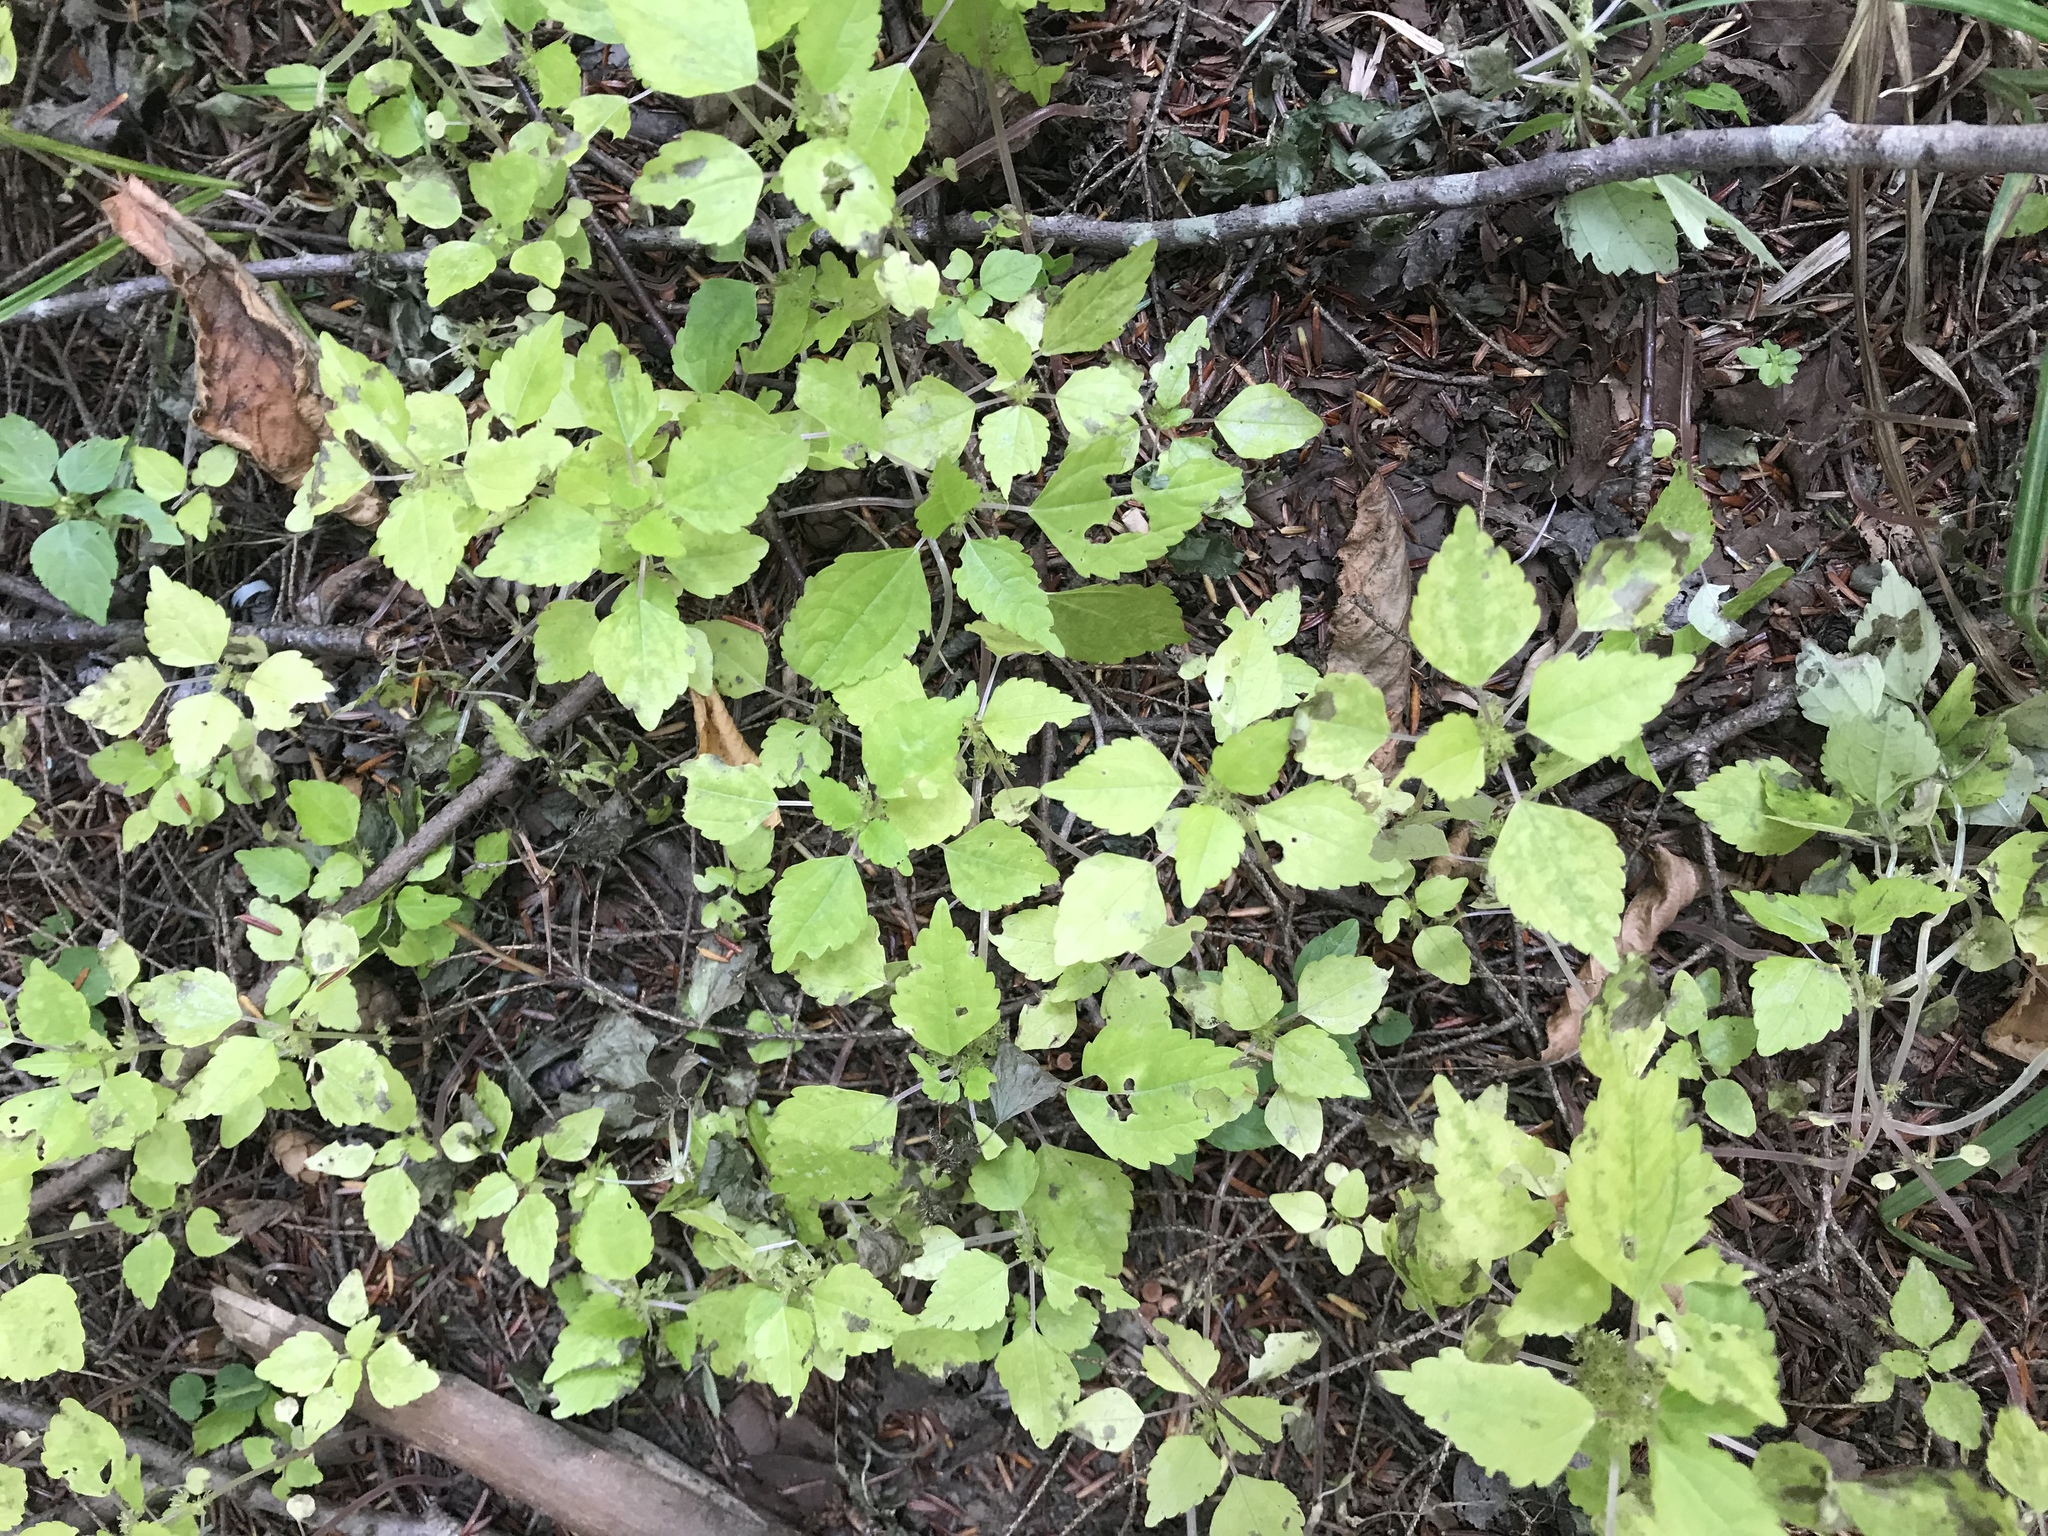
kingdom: Plantae
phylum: Tracheophyta
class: Magnoliopsida
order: Rosales
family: Urticaceae
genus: Pilea
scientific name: Pilea pumila
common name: Clearweed
